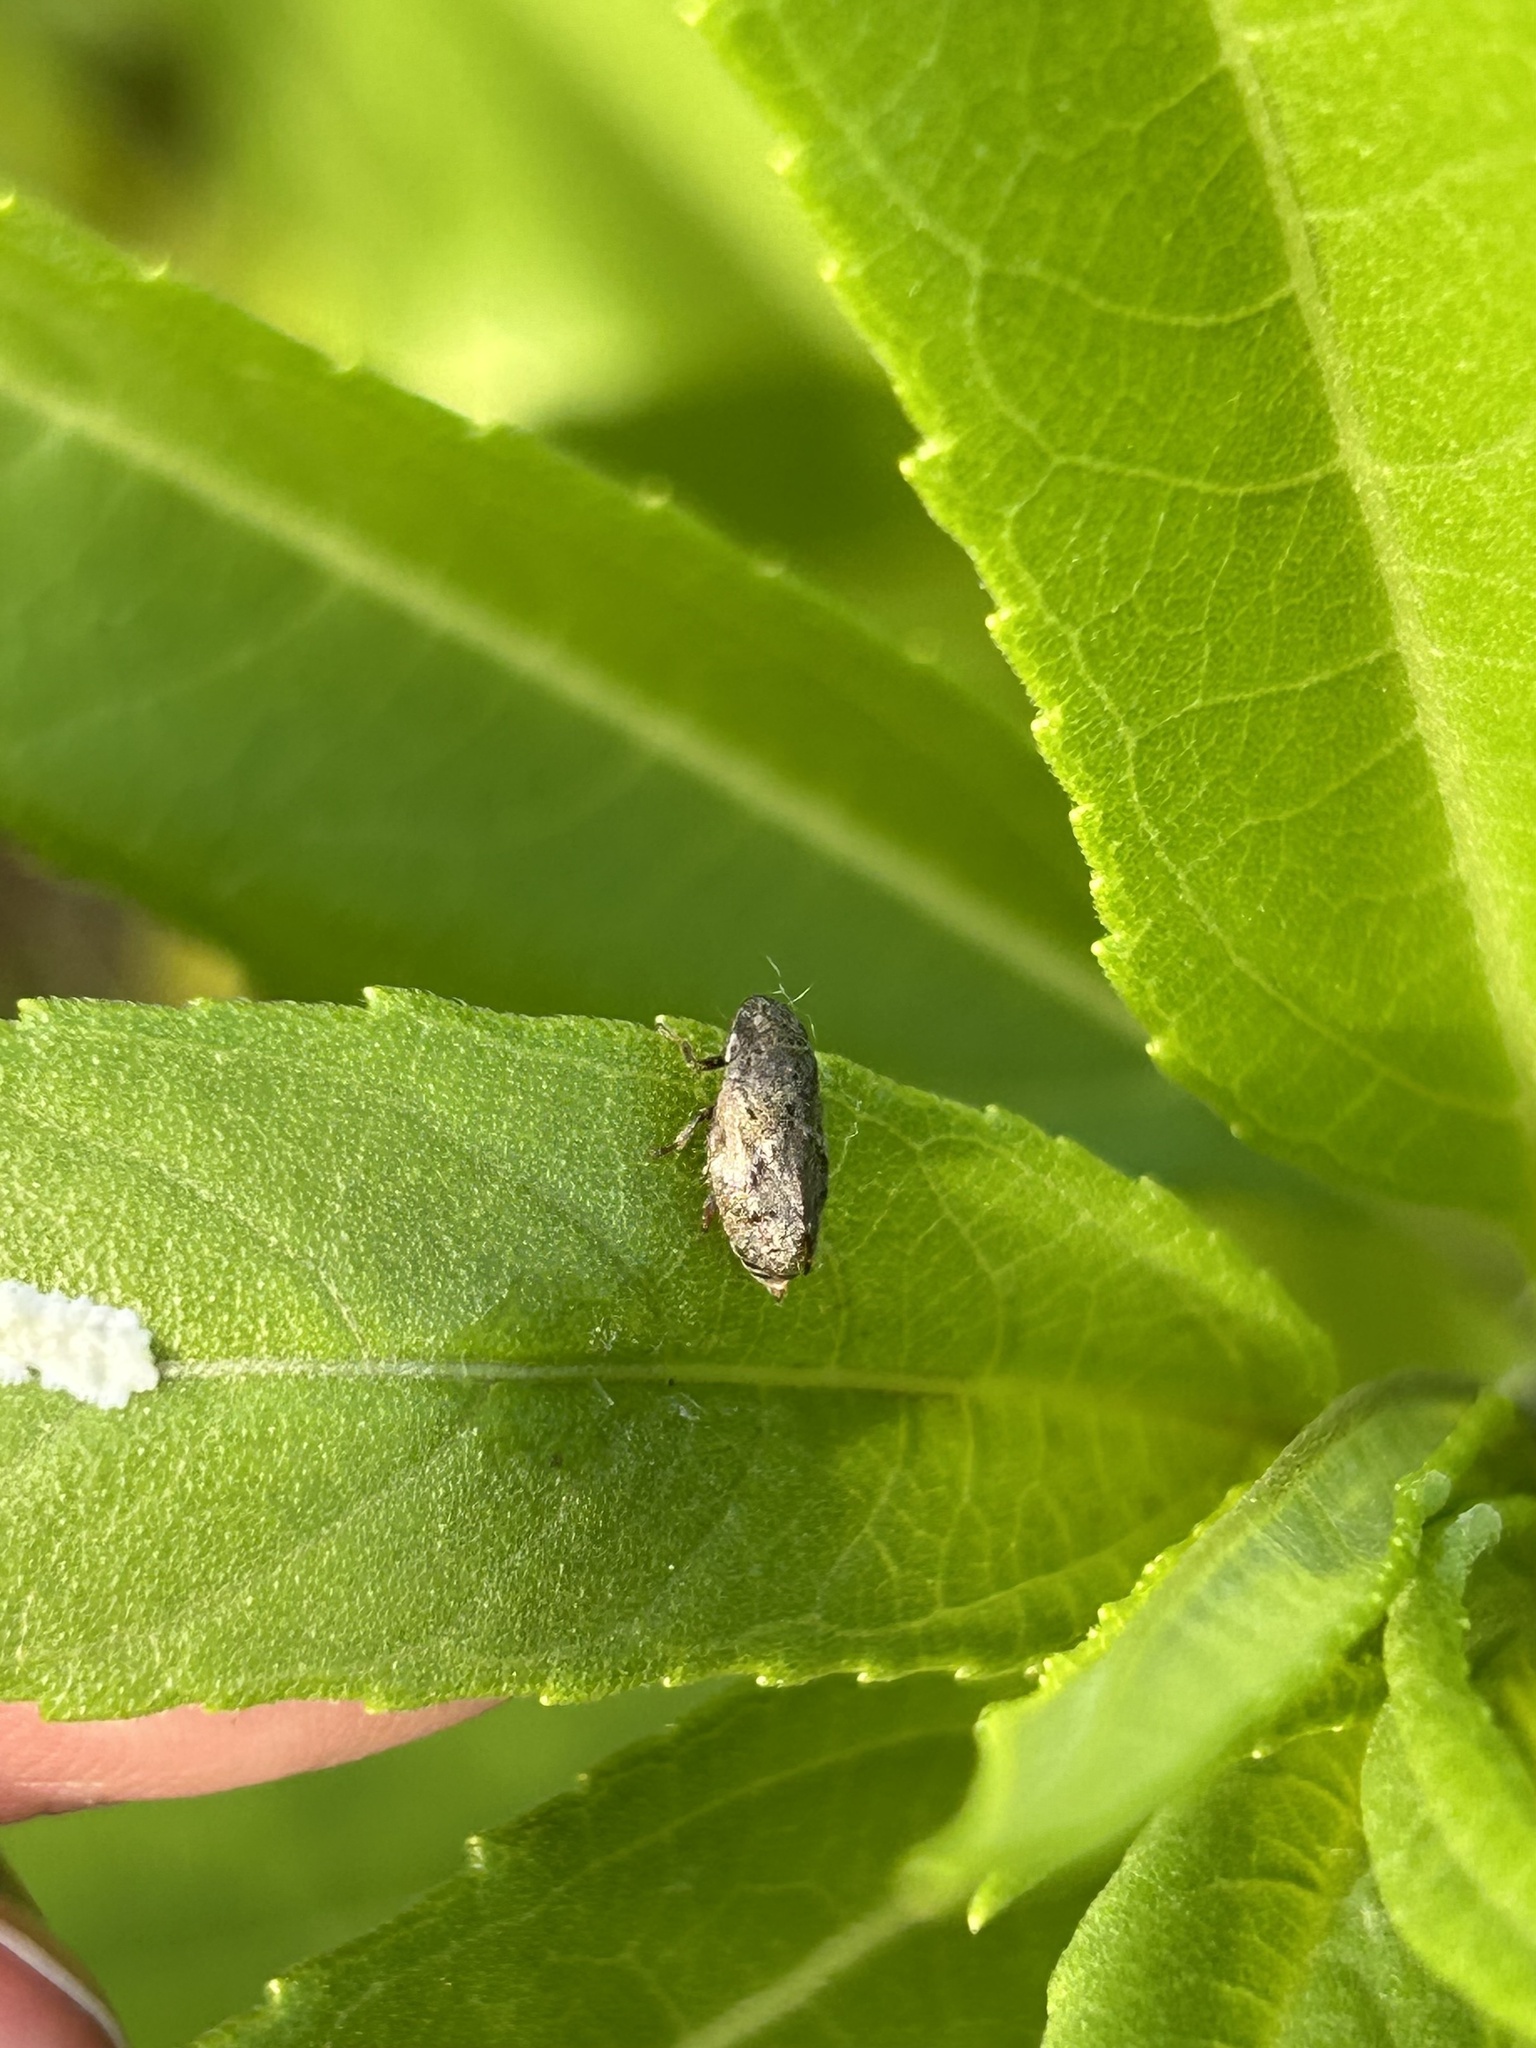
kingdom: Animalia
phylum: Arthropoda
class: Insecta
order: Hemiptera
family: Aphrophoridae
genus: Philaronia
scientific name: Philaronia abjecta
